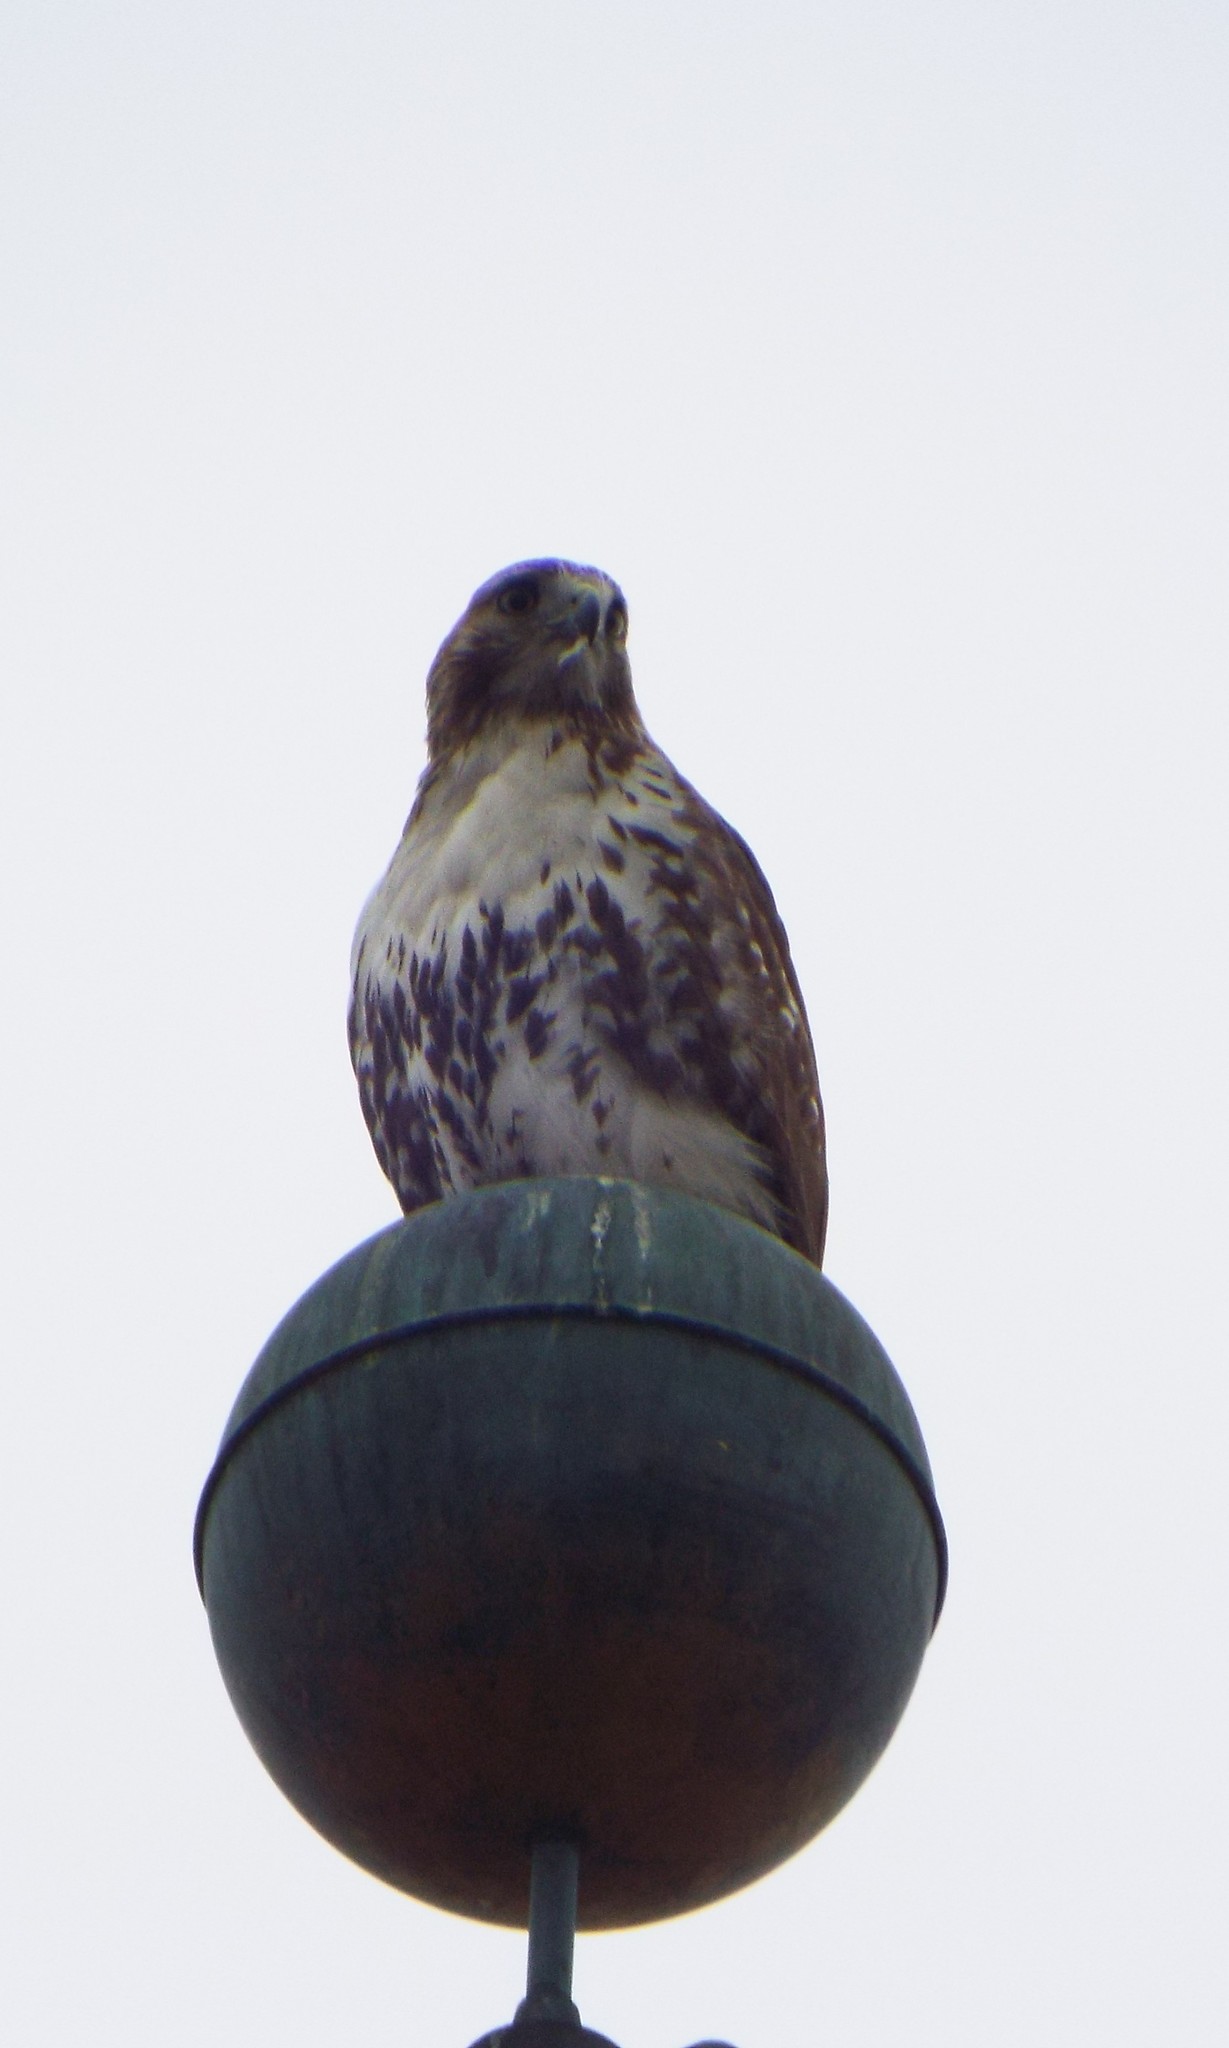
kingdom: Animalia
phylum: Chordata
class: Aves
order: Accipitriformes
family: Accipitridae
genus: Buteo
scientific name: Buteo jamaicensis
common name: Red-tailed hawk
